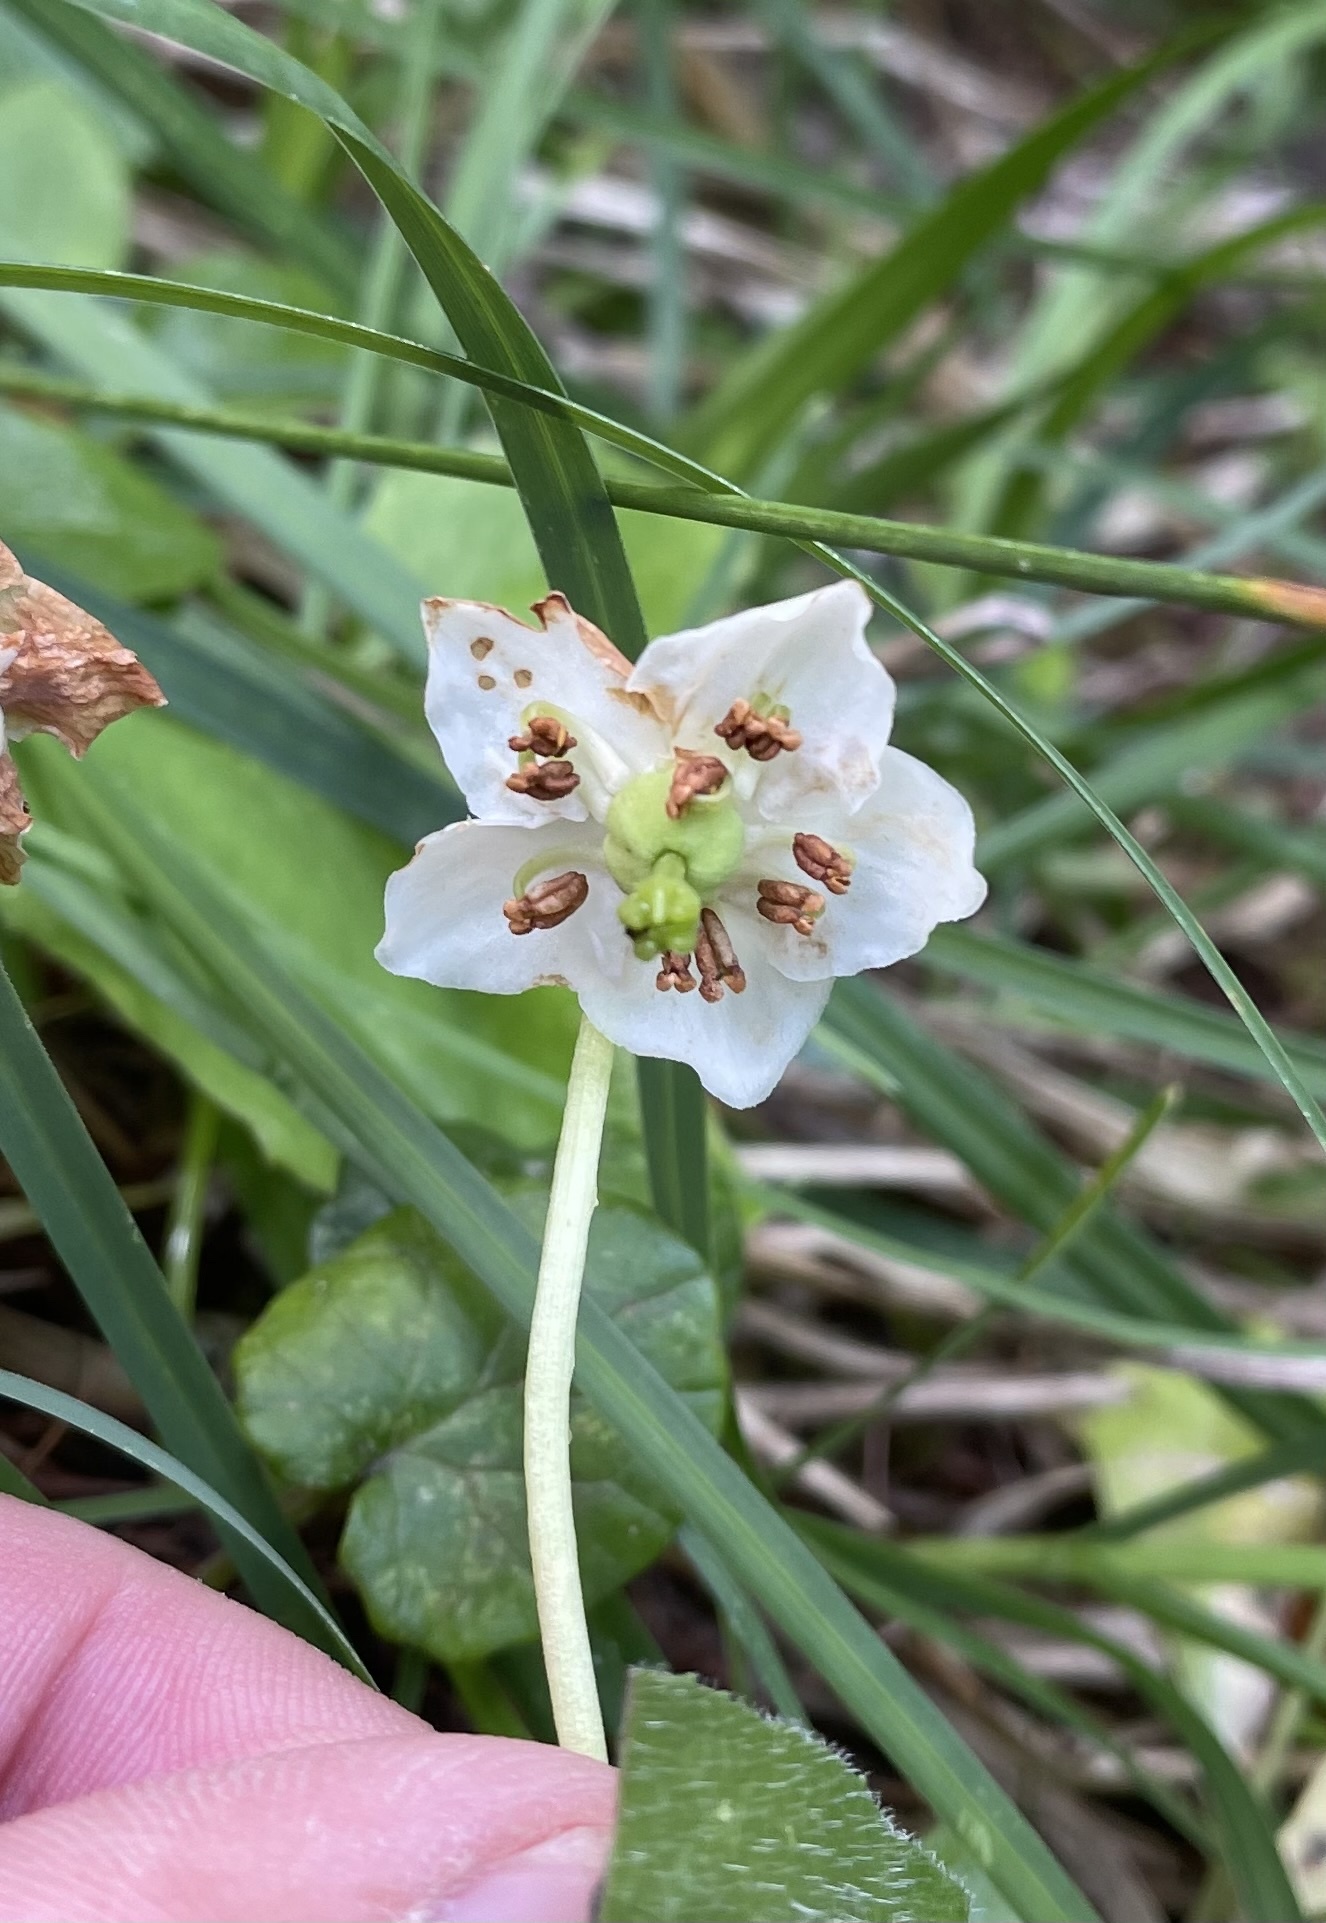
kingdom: Plantae
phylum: Tracheophyta
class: Magnoliopsida
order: Ericales
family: Ericaceae
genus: Moneses
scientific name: Moneses uniflora
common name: One-flowered wintergreen
